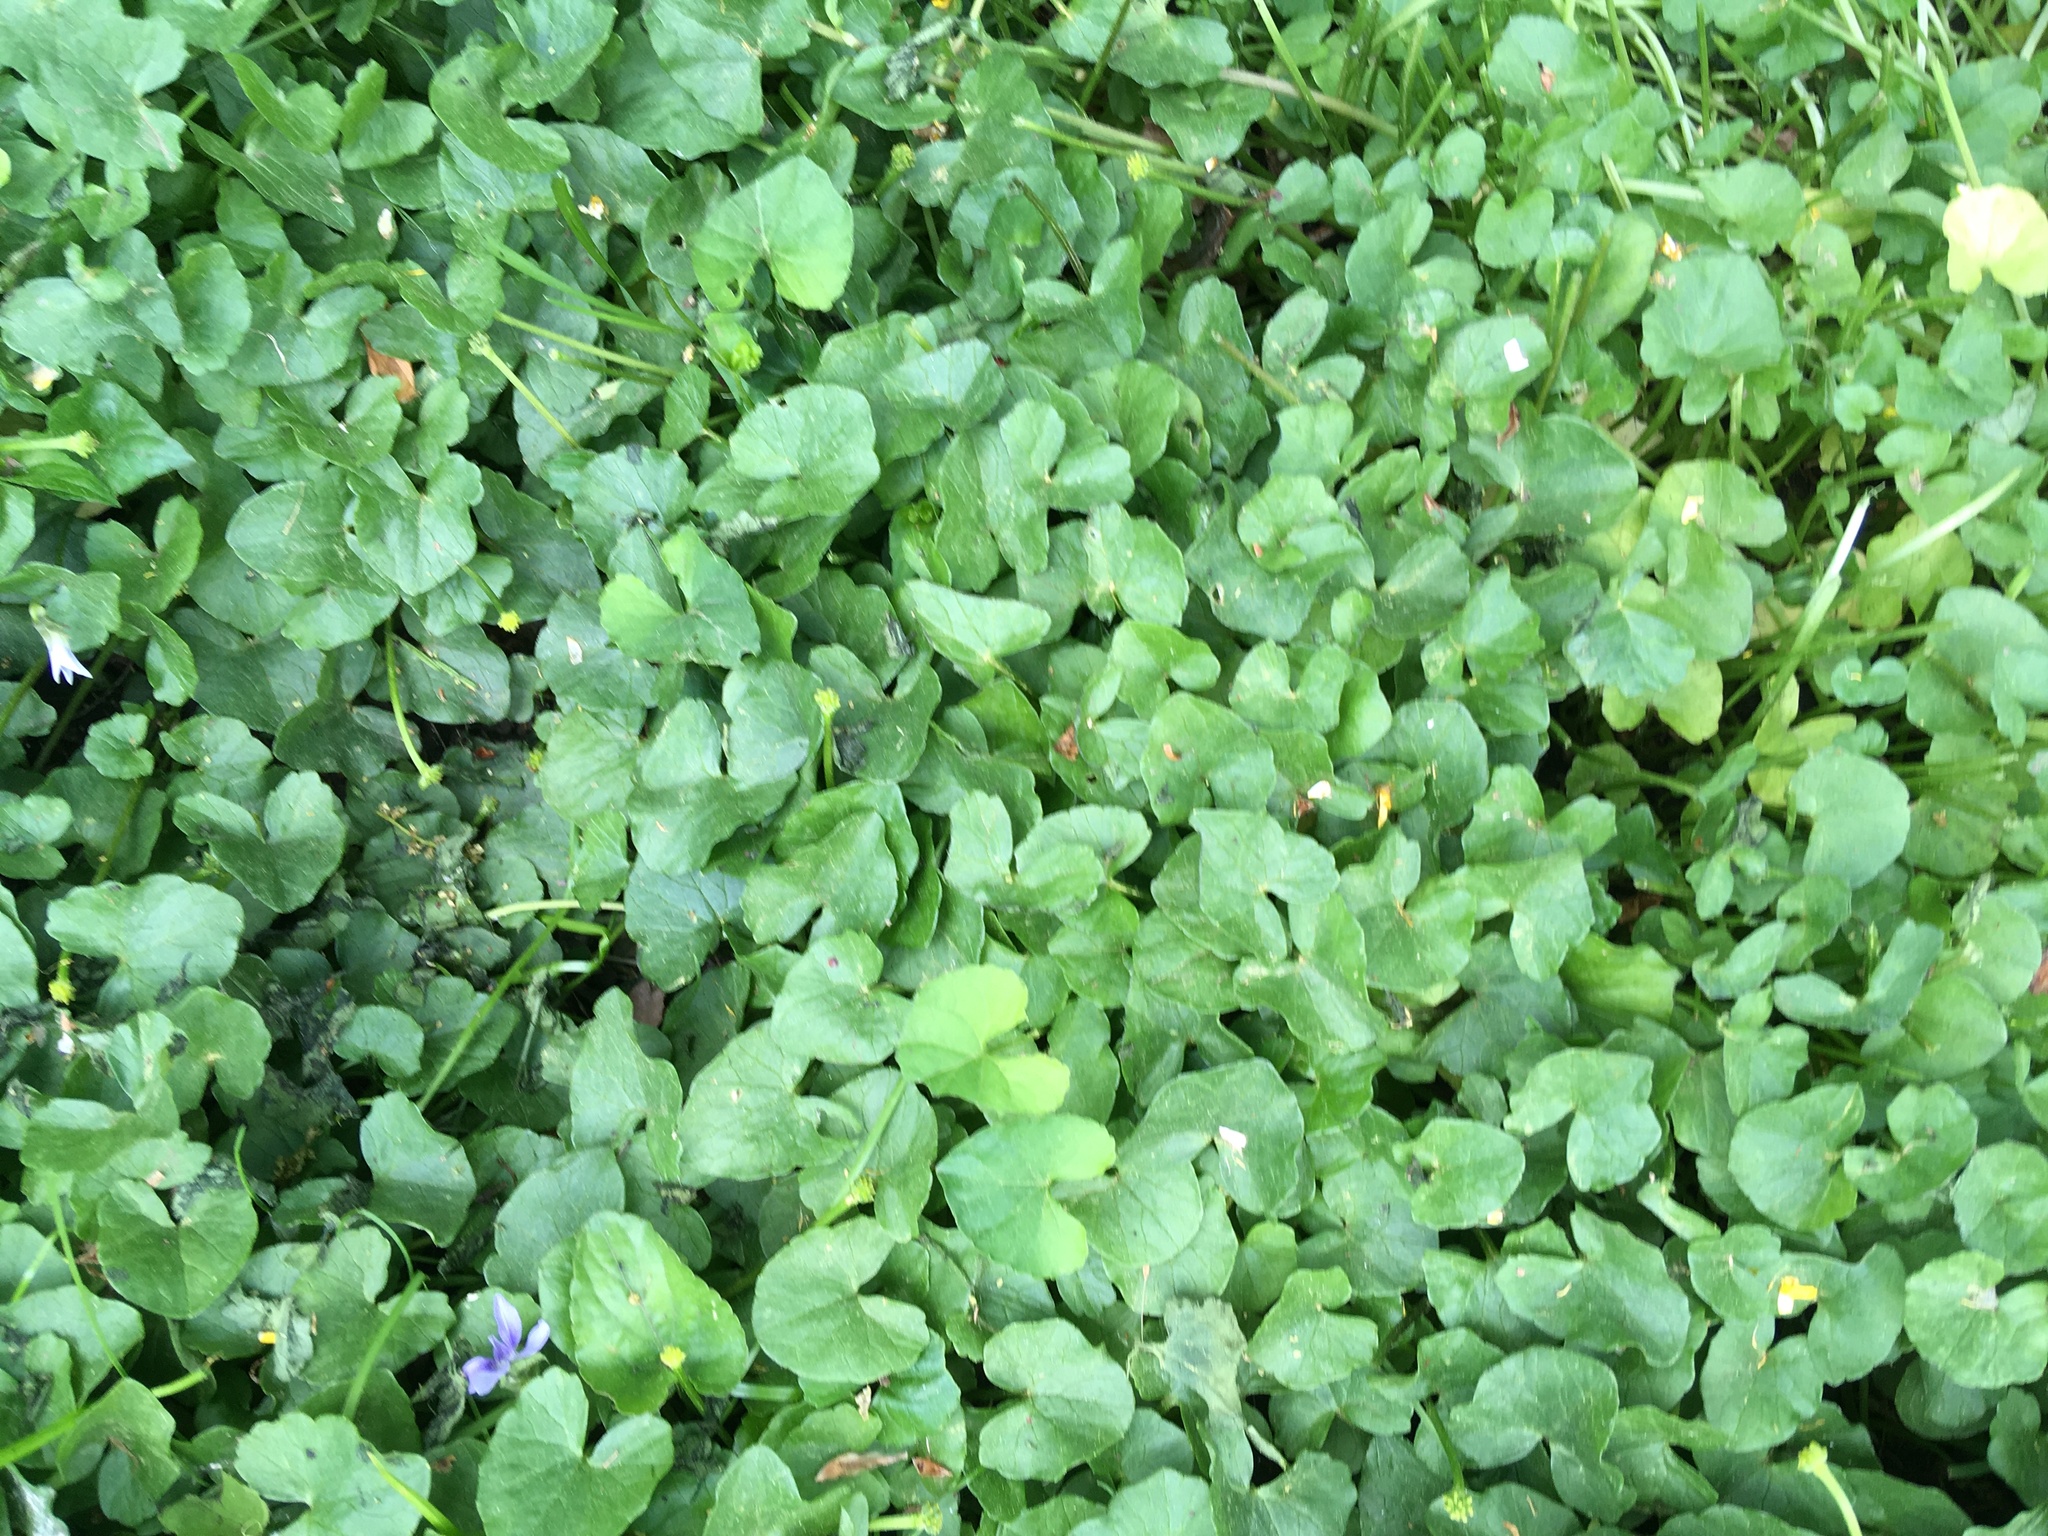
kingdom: Plantae
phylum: Tracheophyta
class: Magnoliopsida
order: Ranunculales
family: Ranunculaceae
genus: Ficaria
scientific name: Ficaria verna
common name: Lesser celandine
